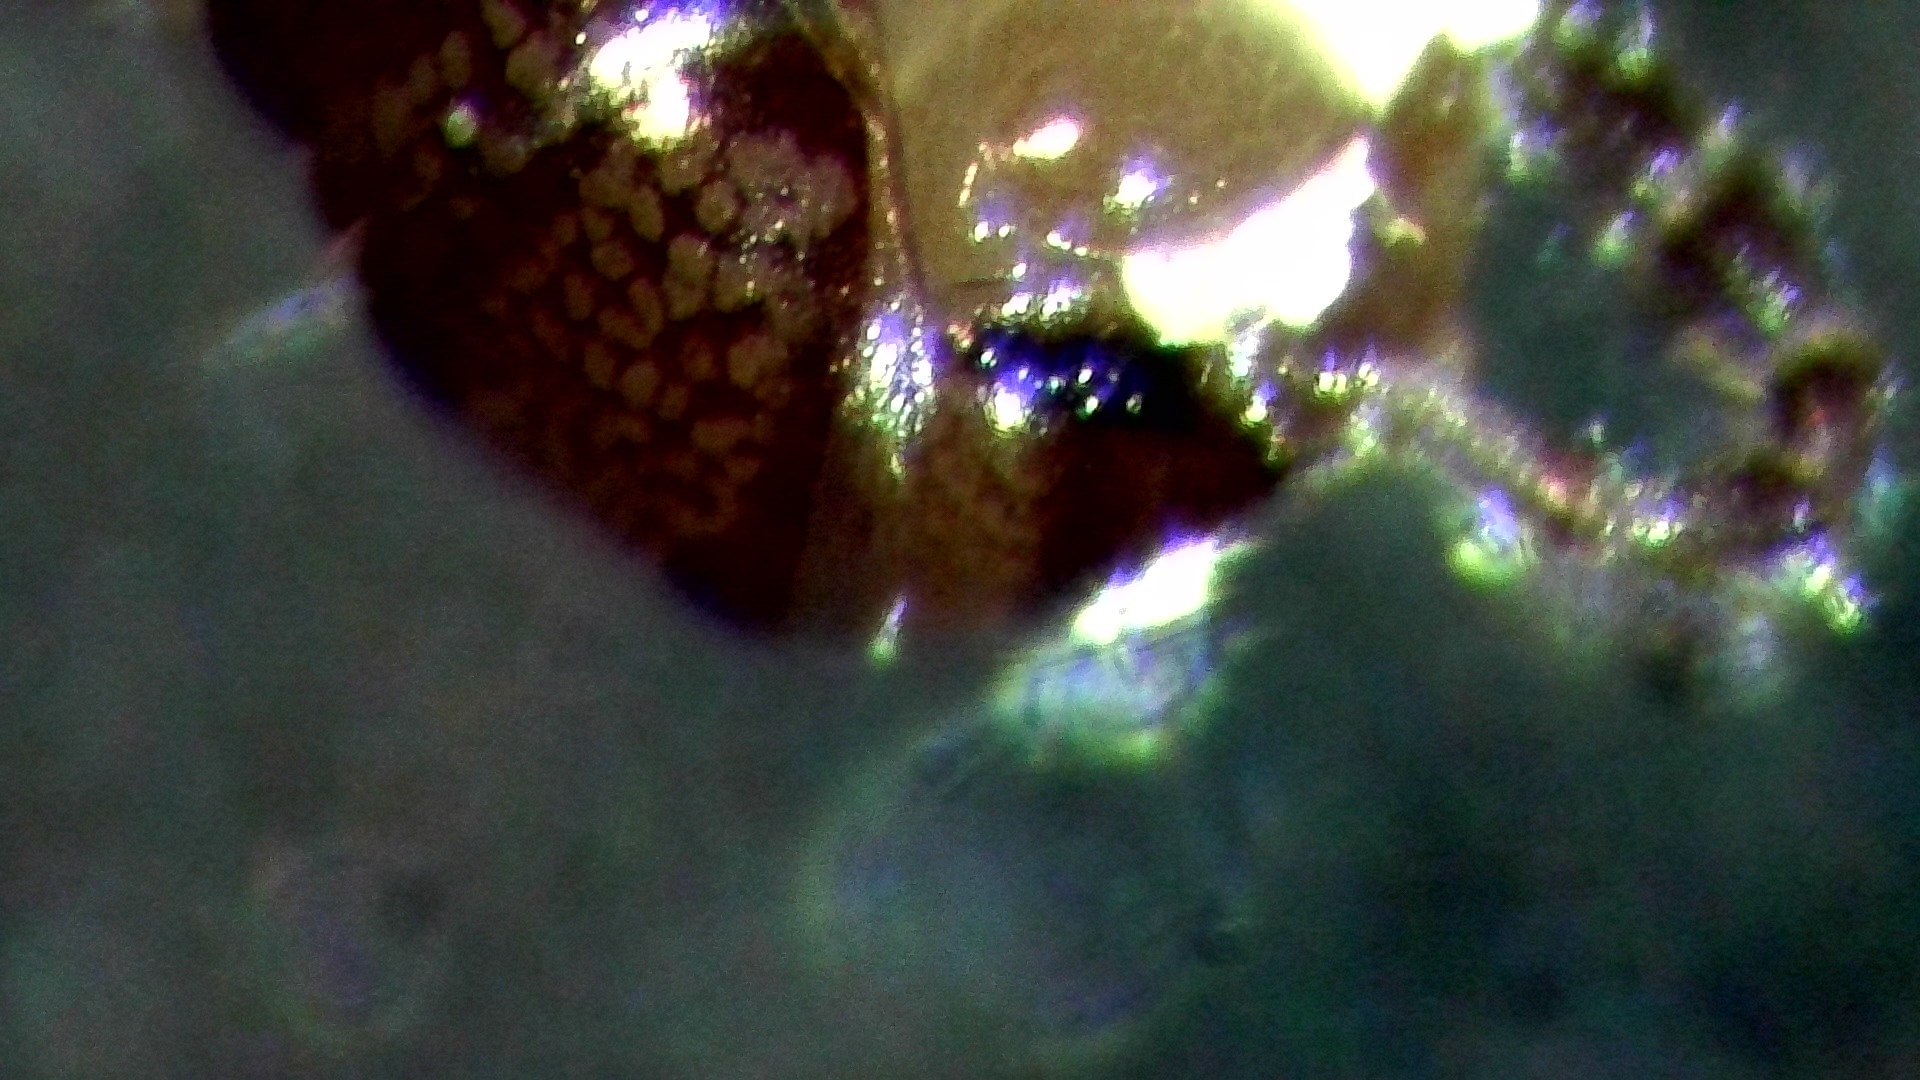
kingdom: Animalia
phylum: Arthropoda
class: Diplopoda
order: Julida
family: Blaniulidae
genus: Proteroiulus
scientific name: Proteroiulus fuscus
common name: Millipede
